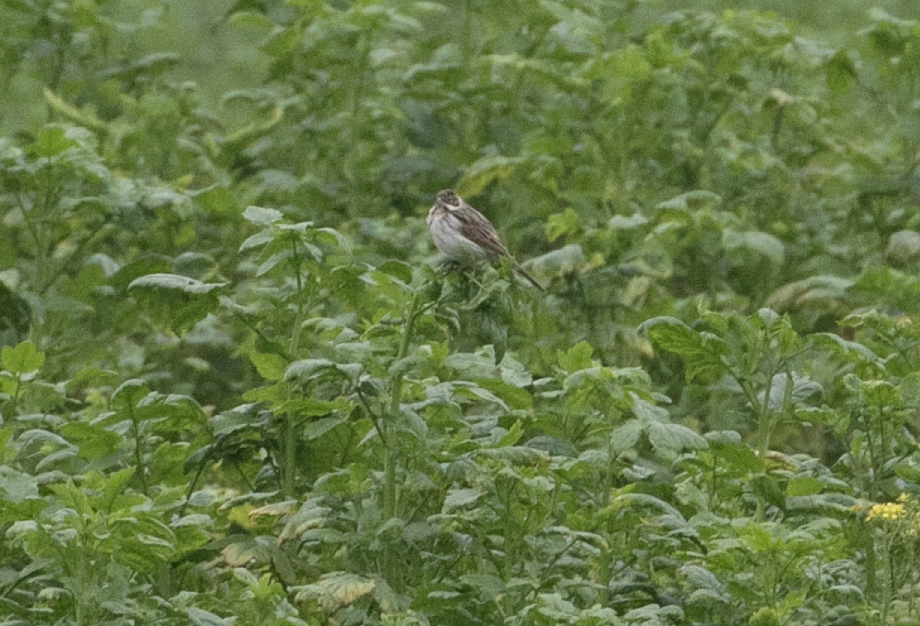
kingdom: Animalia
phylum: Chordata
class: Aves
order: Passeriformes
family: Emberizidae
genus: Emberiza
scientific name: Emberiza schoeniclus
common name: Reed bunting
